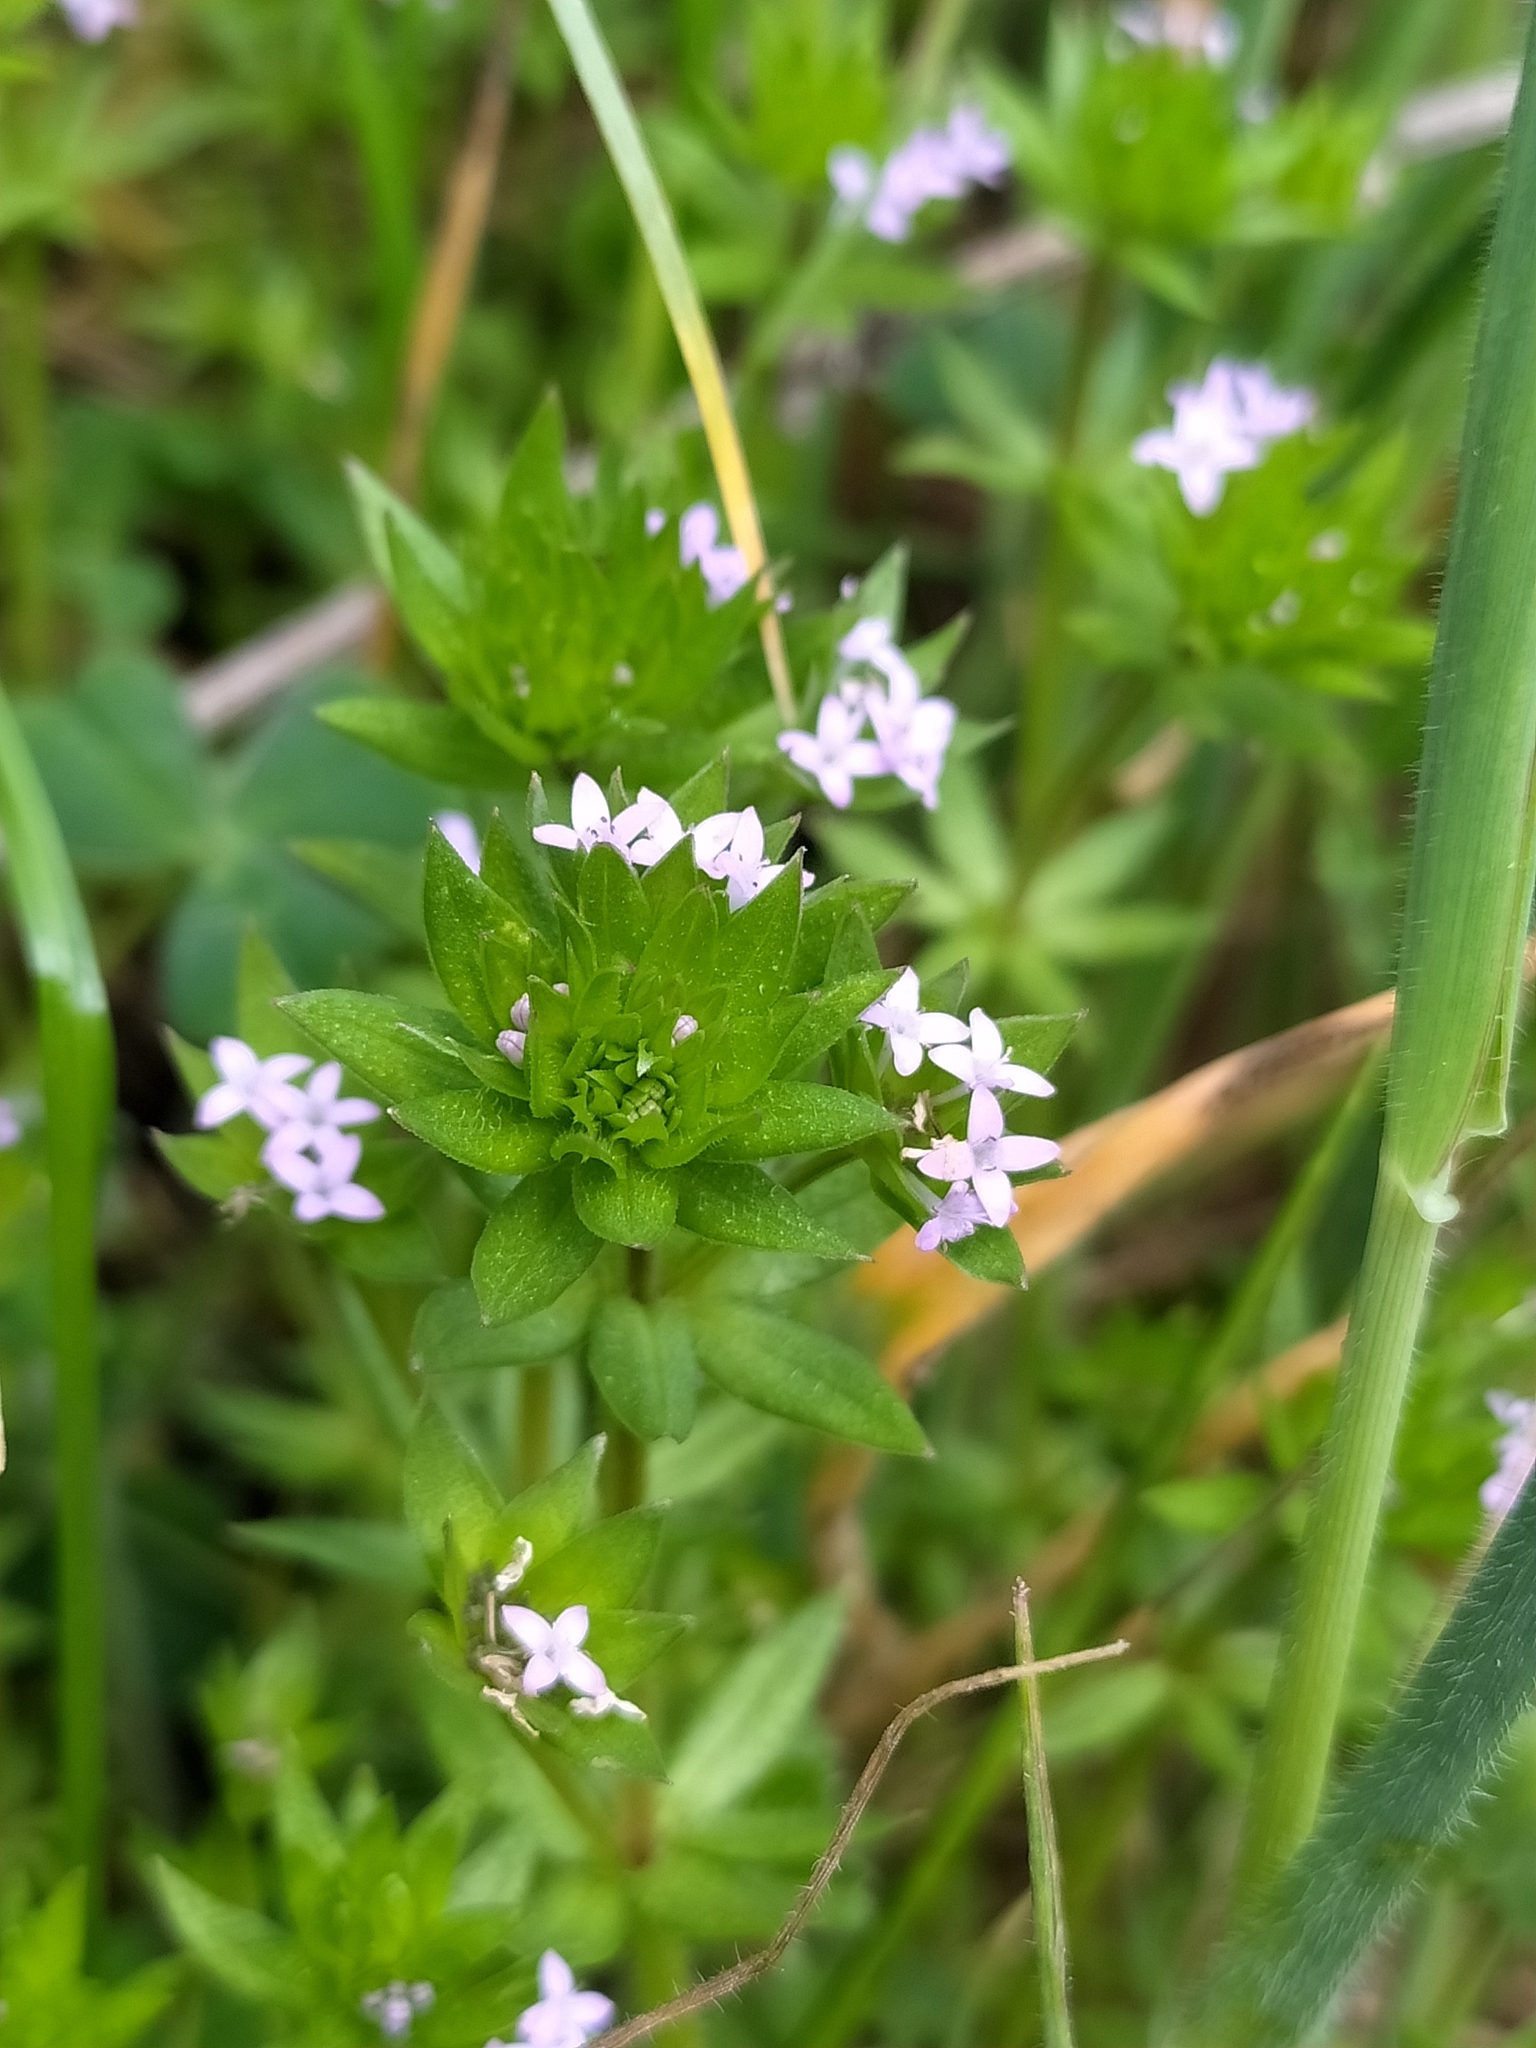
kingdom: Plantae
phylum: Tracheophyta
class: Magnoliopsida
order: Gentianales
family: Rubiaceae
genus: Sherardia
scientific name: Sherardia arvensis
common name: Field madder
